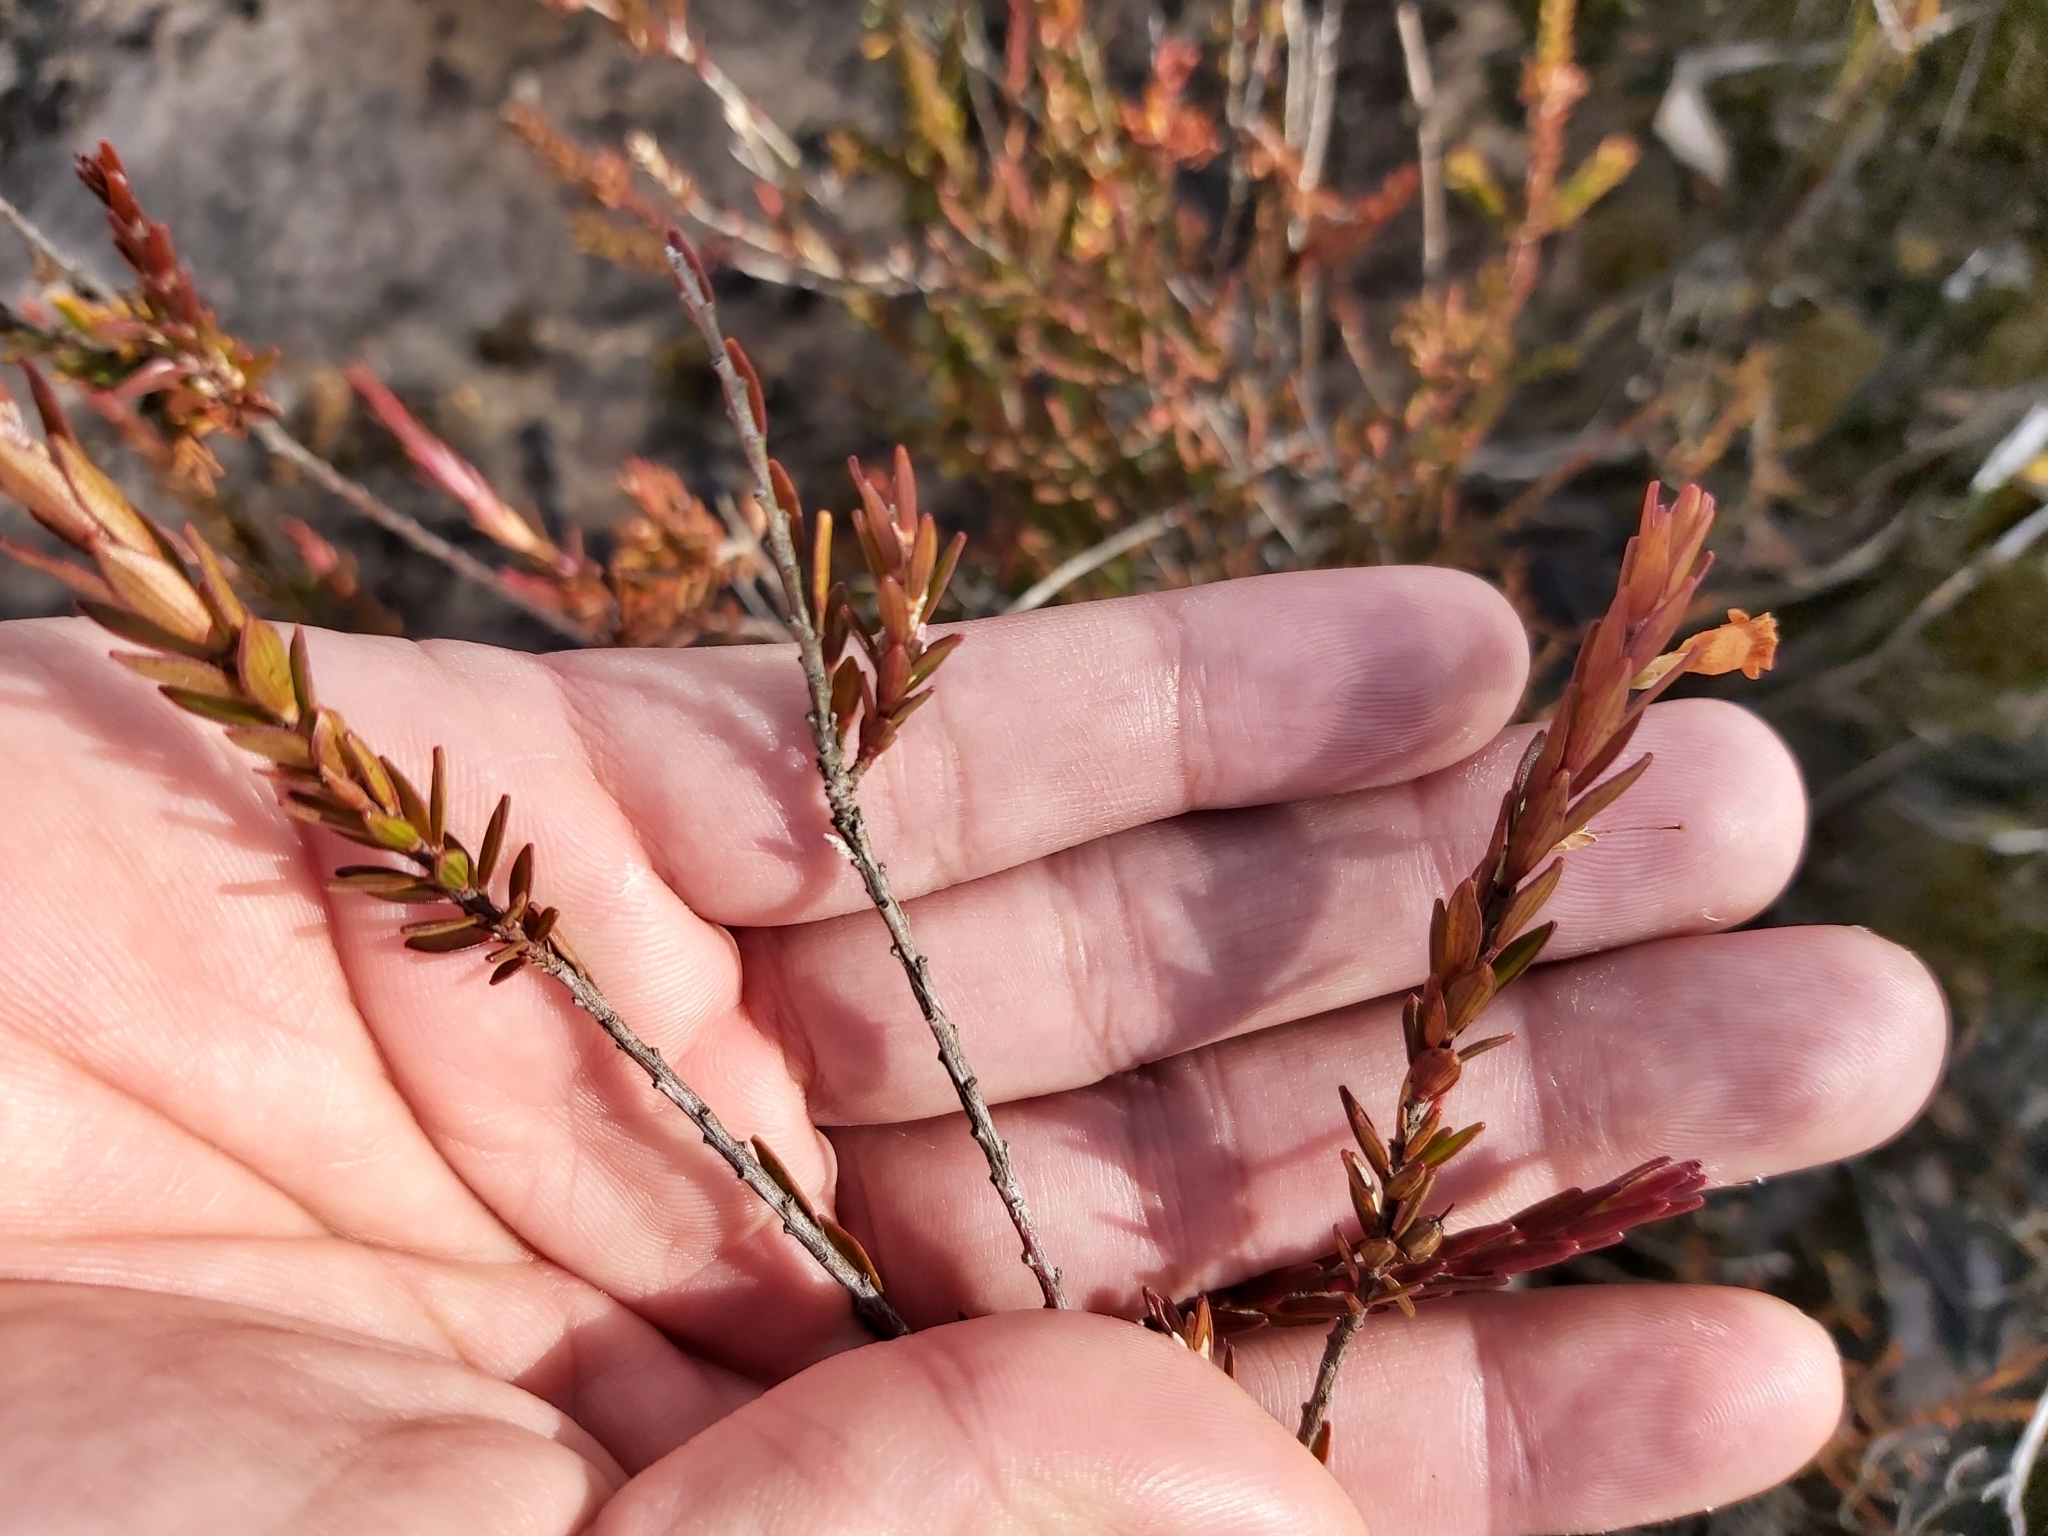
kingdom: Plantae
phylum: Tracheophyta
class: Magnoliopsida
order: Ericales
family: Ericaceae
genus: Epacris
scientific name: Epacris obtusifolia
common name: Blunt-leaf australian-heath
